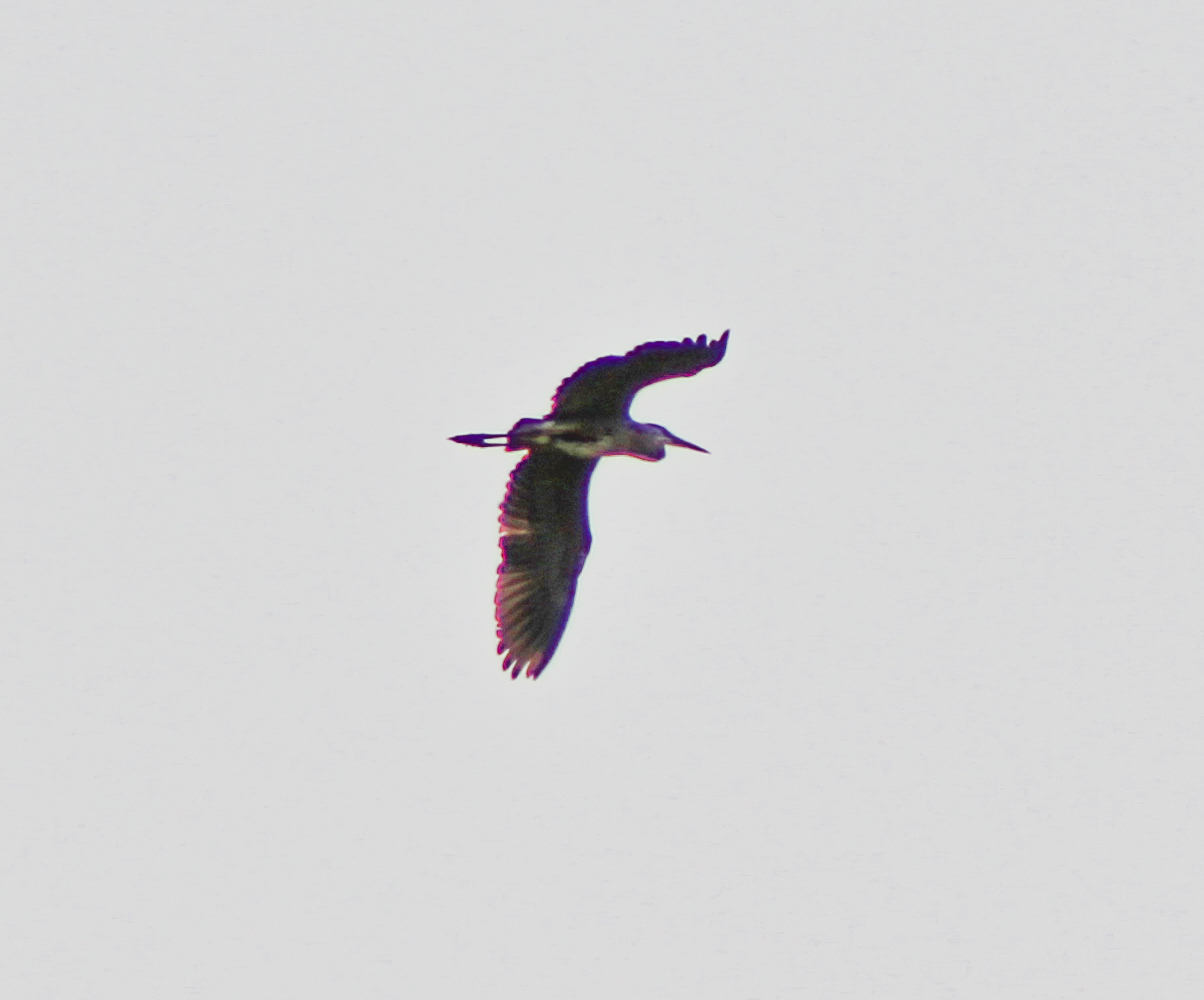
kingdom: Animalia
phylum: Chordata
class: Aves
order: Pelecaniformes
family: Ardeidae
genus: Ardea
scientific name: Ardea herodias
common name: Great blue heron
